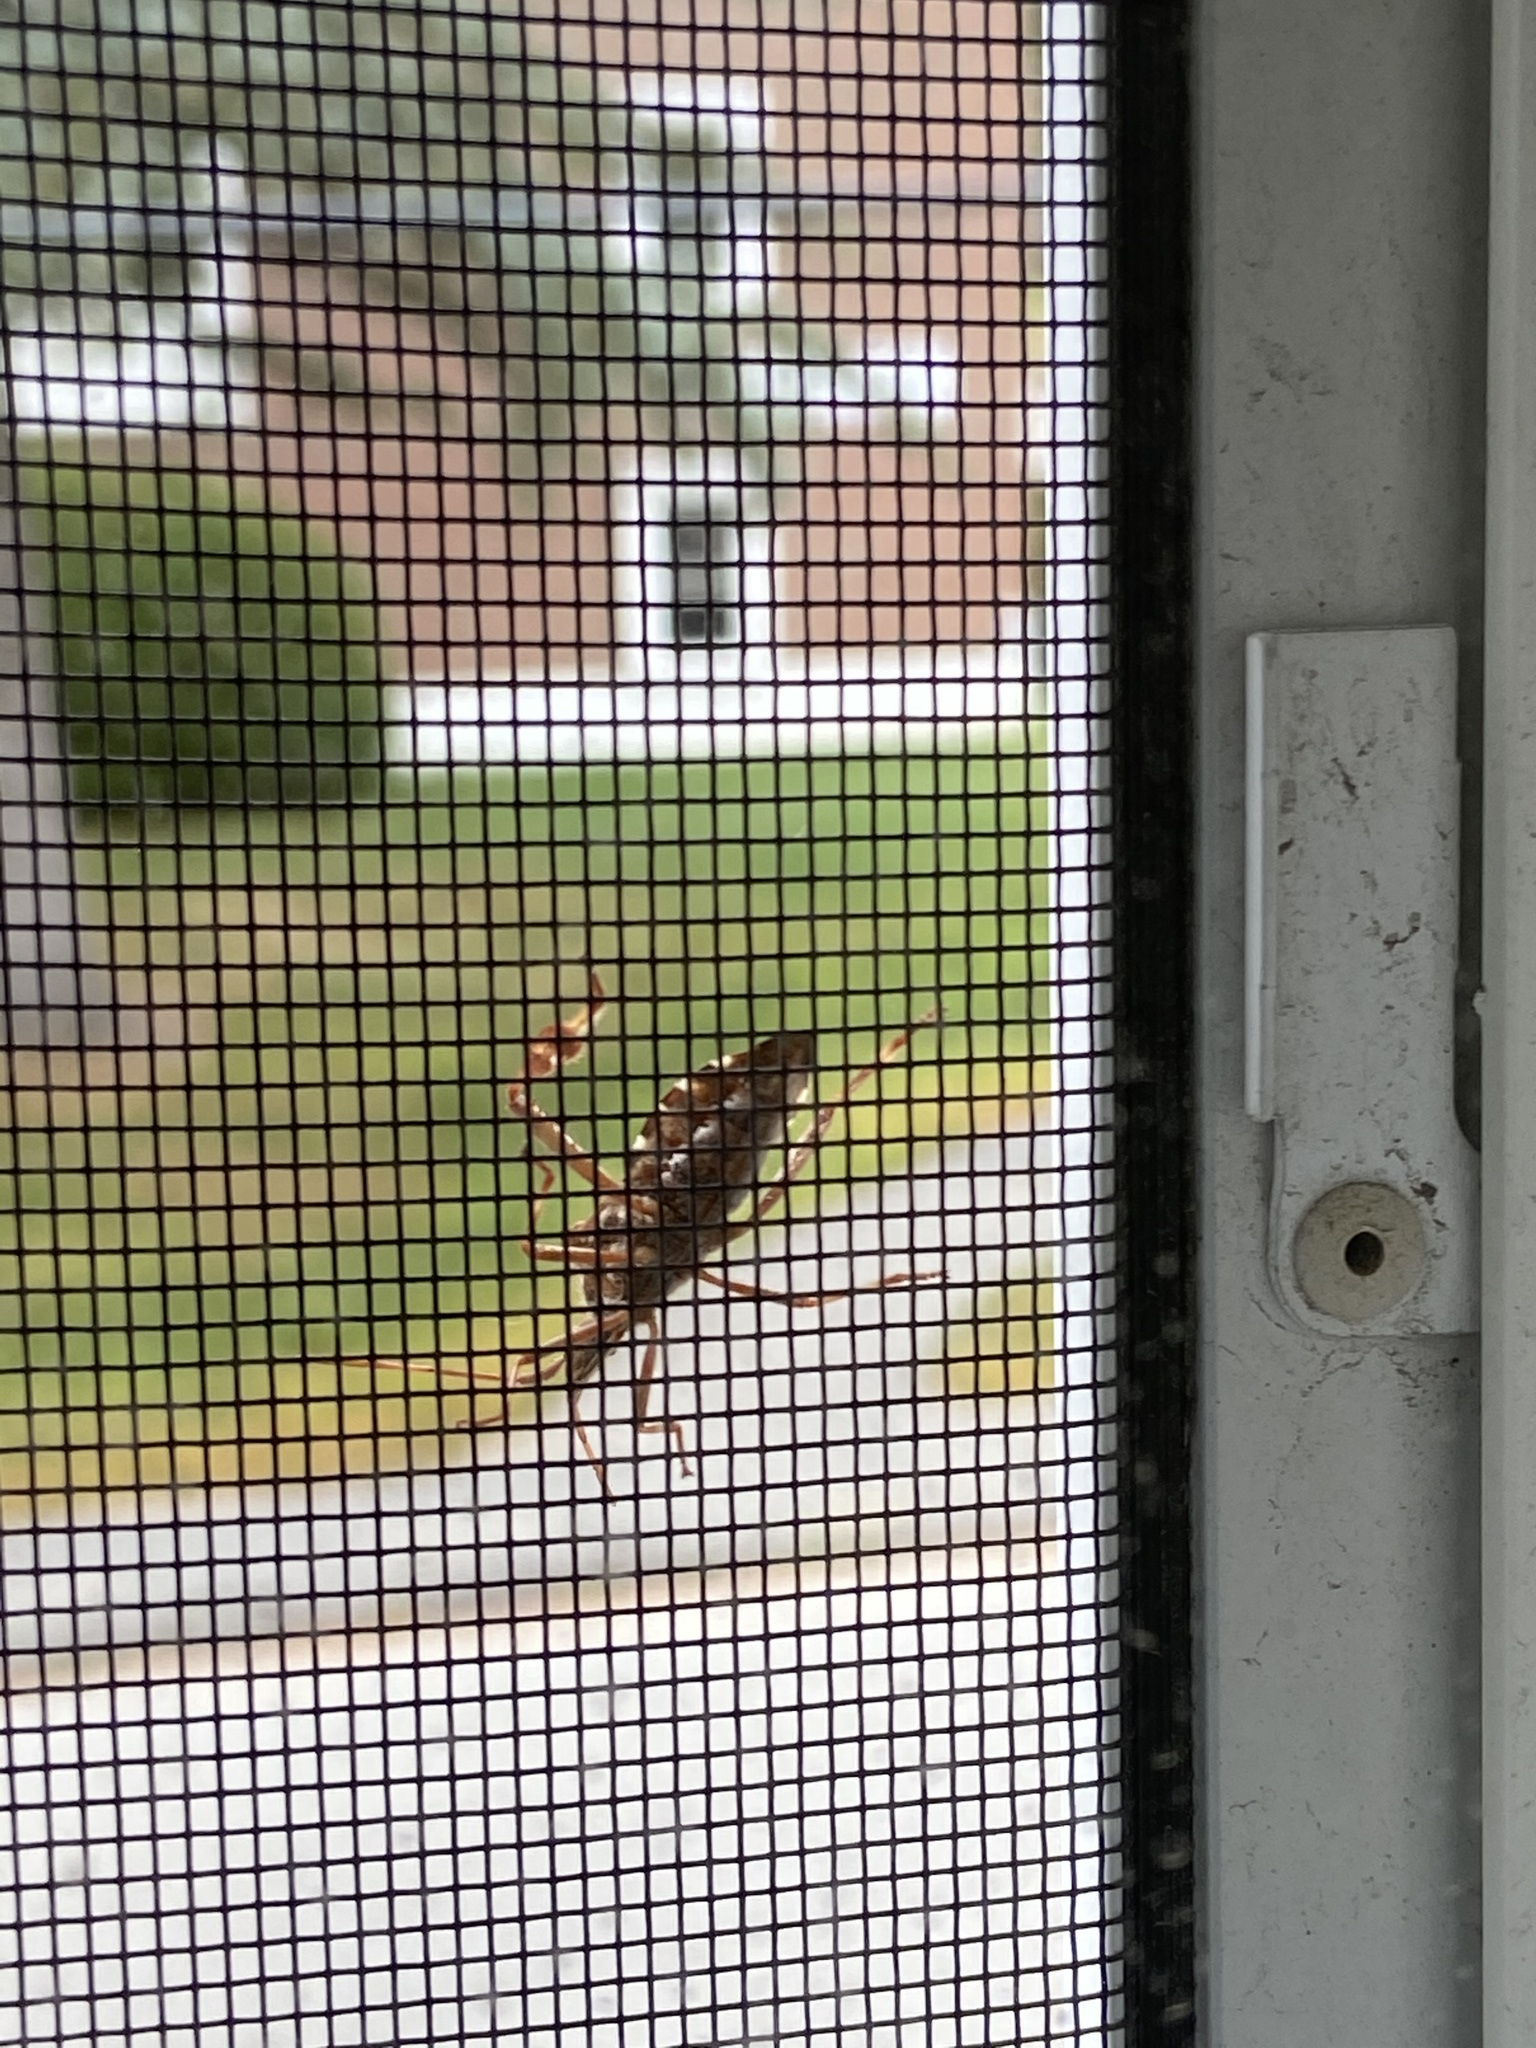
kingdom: Animalia
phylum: Arthropoda
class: Insecta
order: Hemiptera
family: Coreidae
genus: Leptoglossus
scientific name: Leptoglossus occidentalis
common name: Western conifer-seed bug
